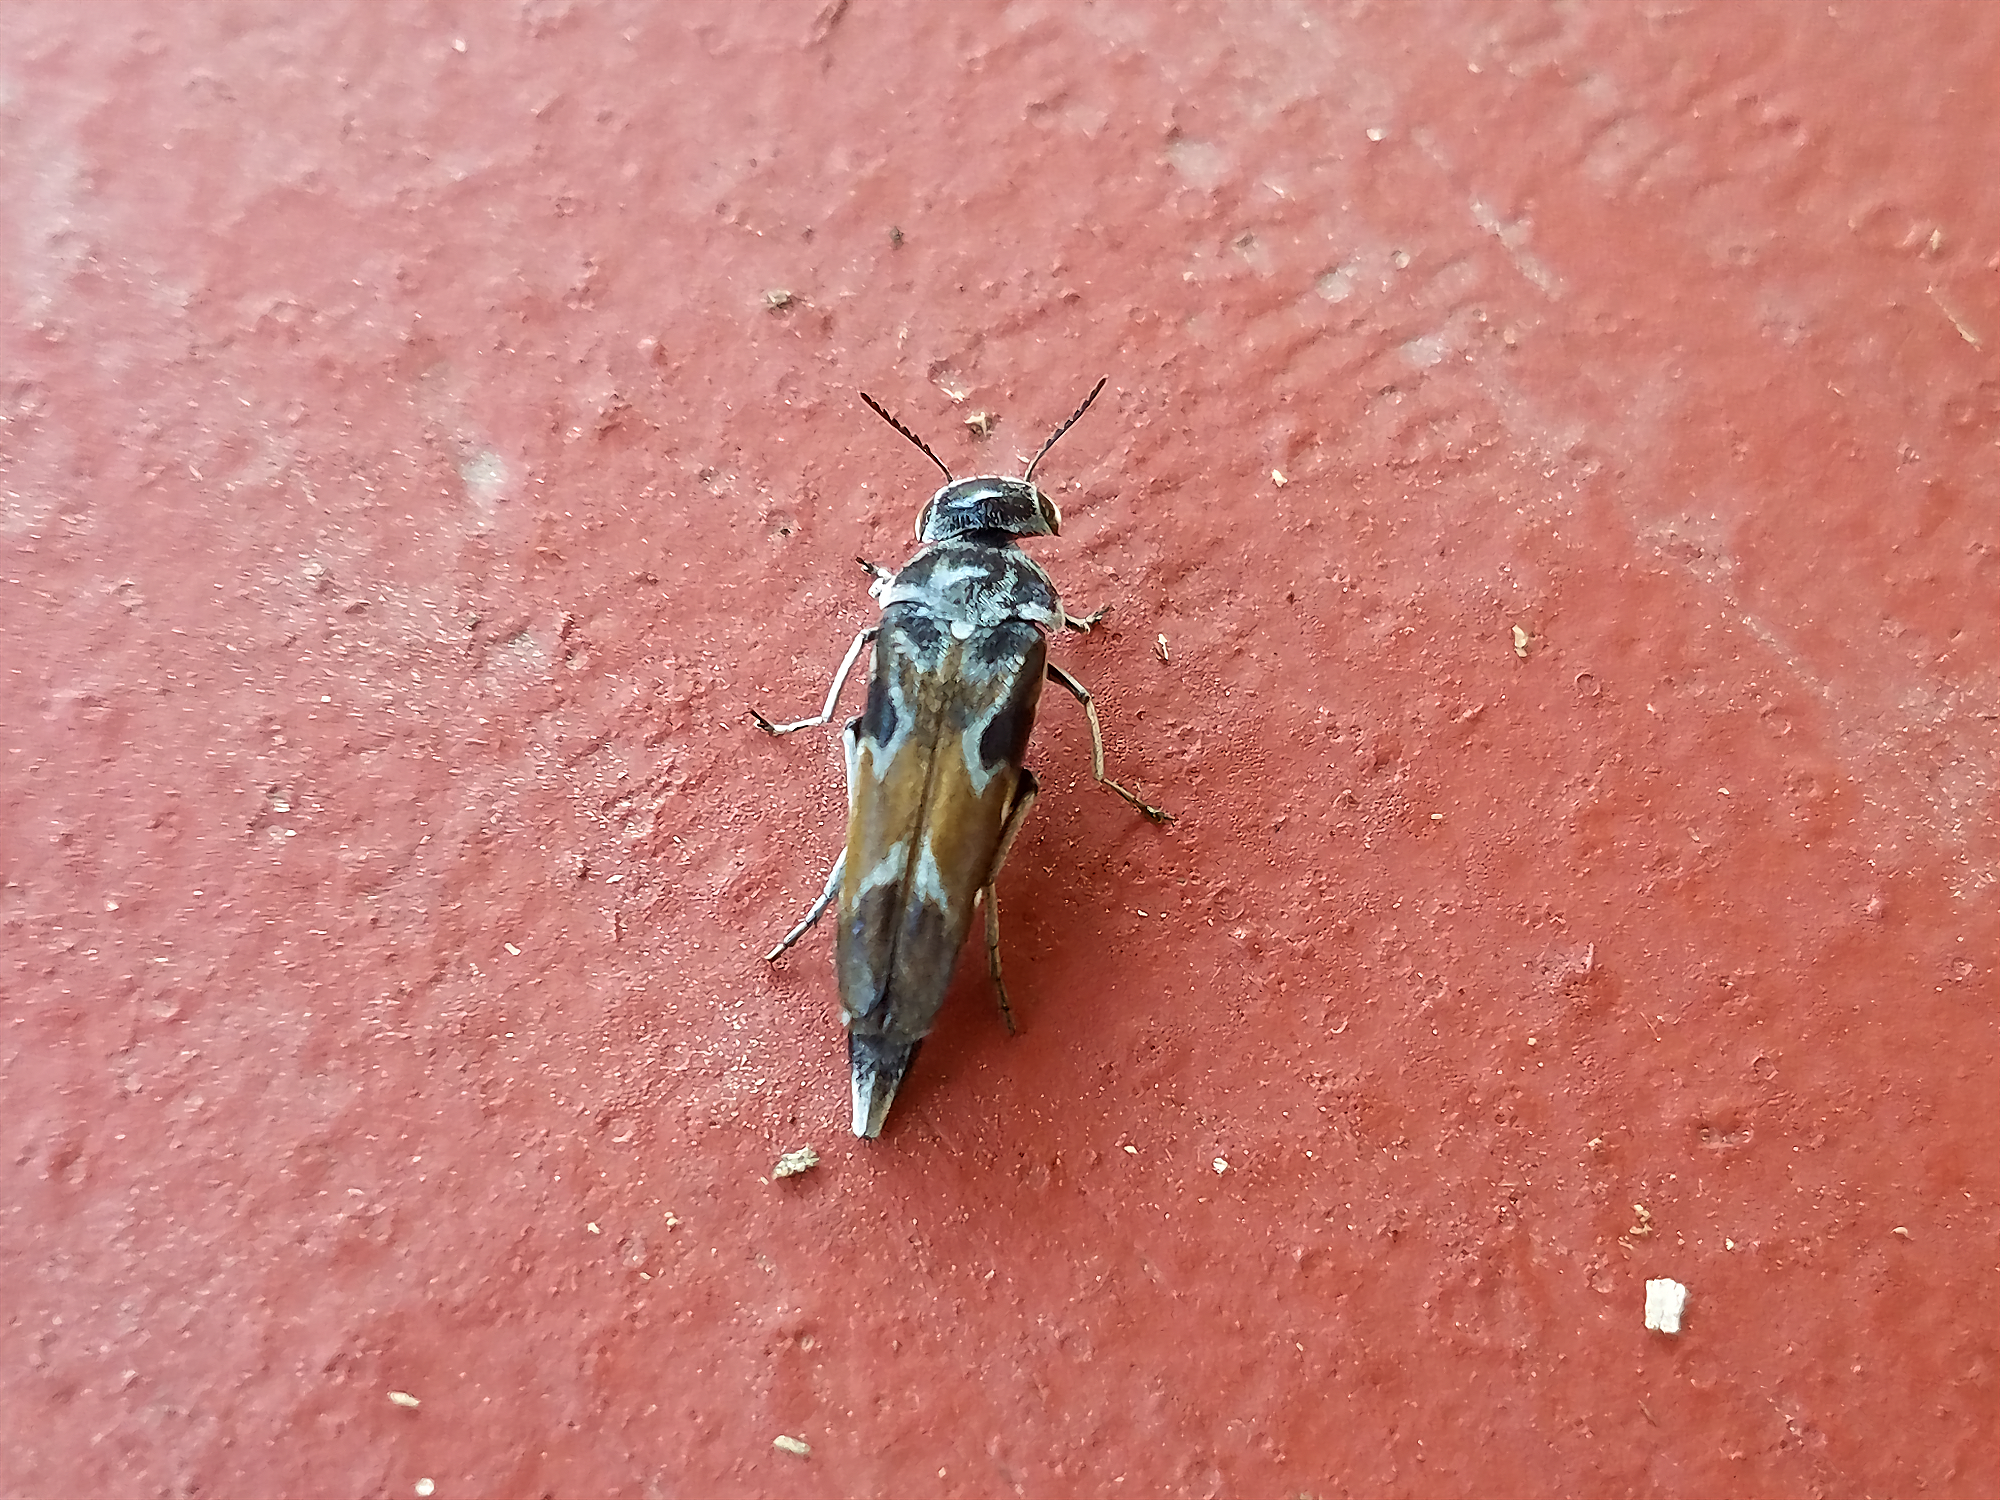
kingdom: Animalia
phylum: Arthropoda
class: Insecta
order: Coleoptera
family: Mordellidae
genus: Glipa
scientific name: Glipa hilaris
